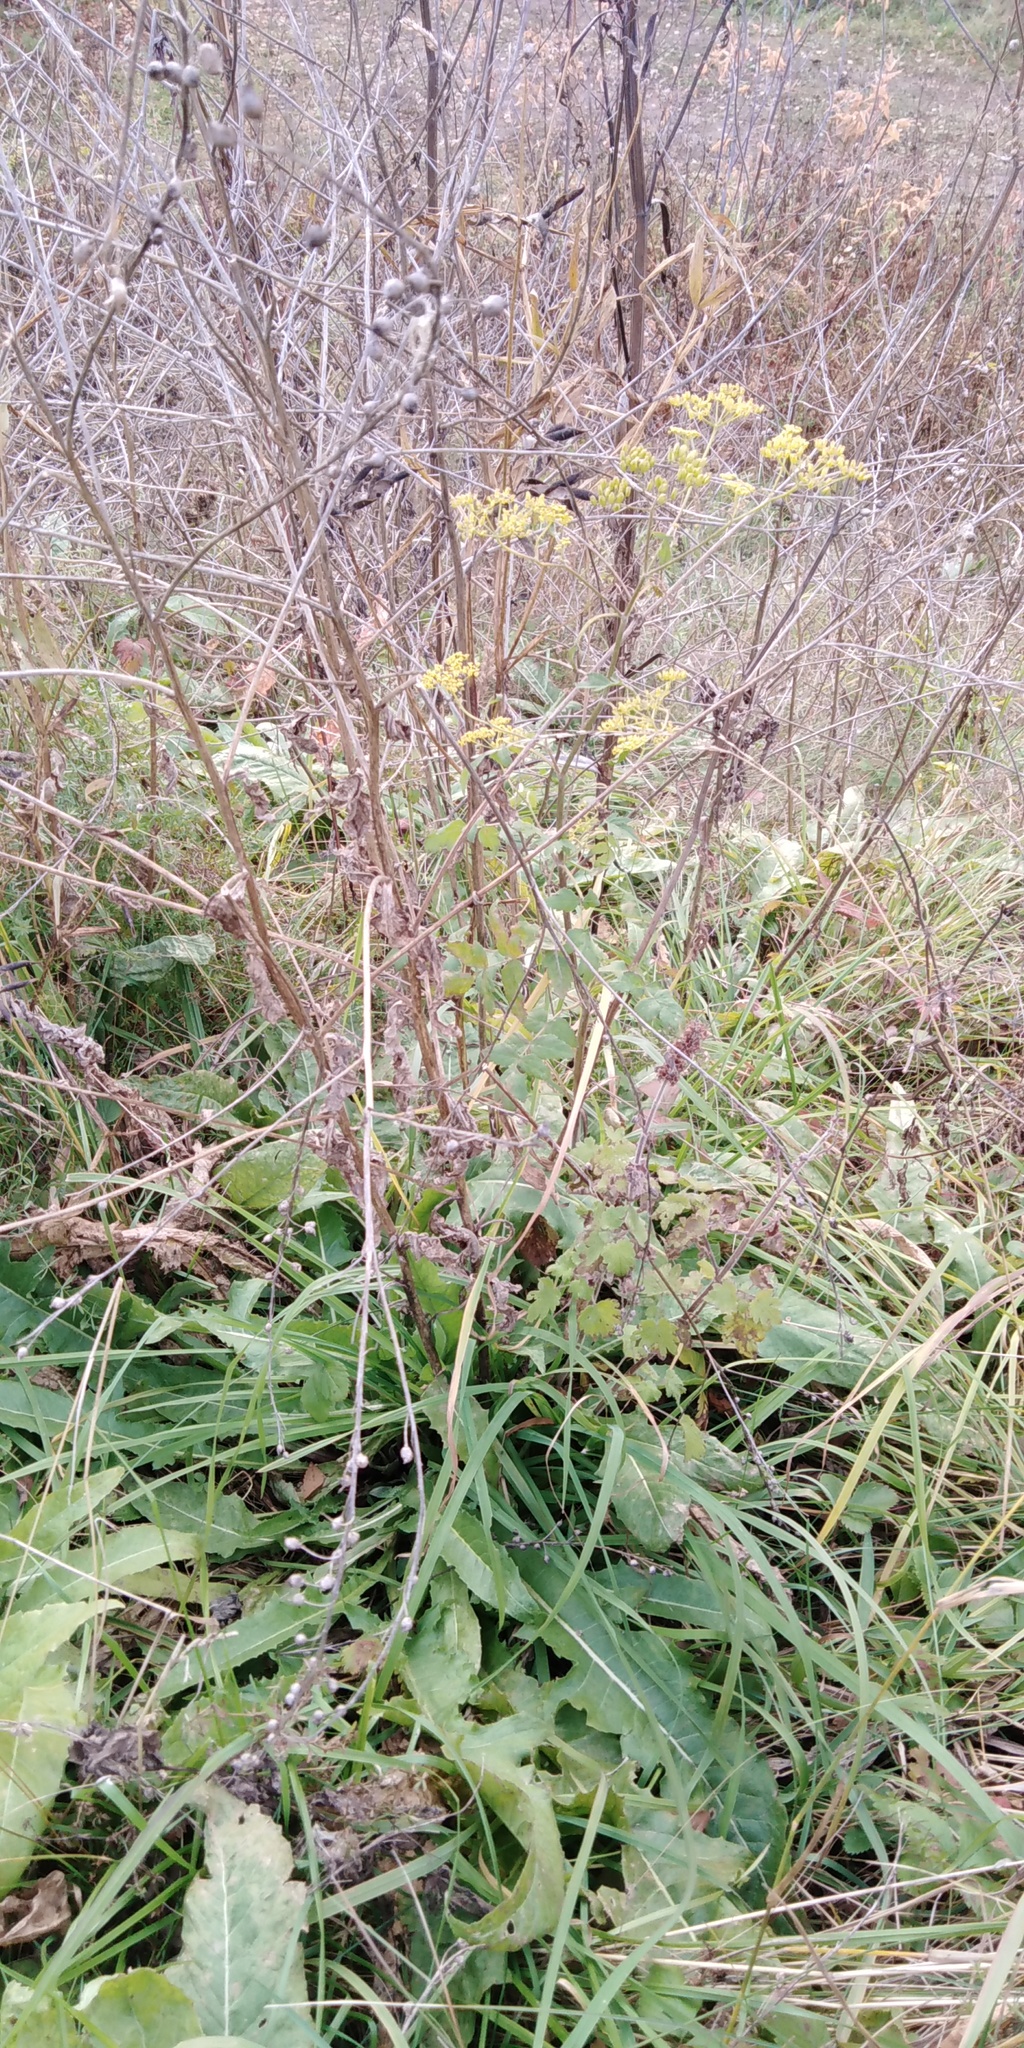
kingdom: Plantae
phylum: Tracheophyta
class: Magnoliopsida
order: Apiales
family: Apiaceae
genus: Pastinaca
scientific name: Pastinaca sativa
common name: Wild parsnip
